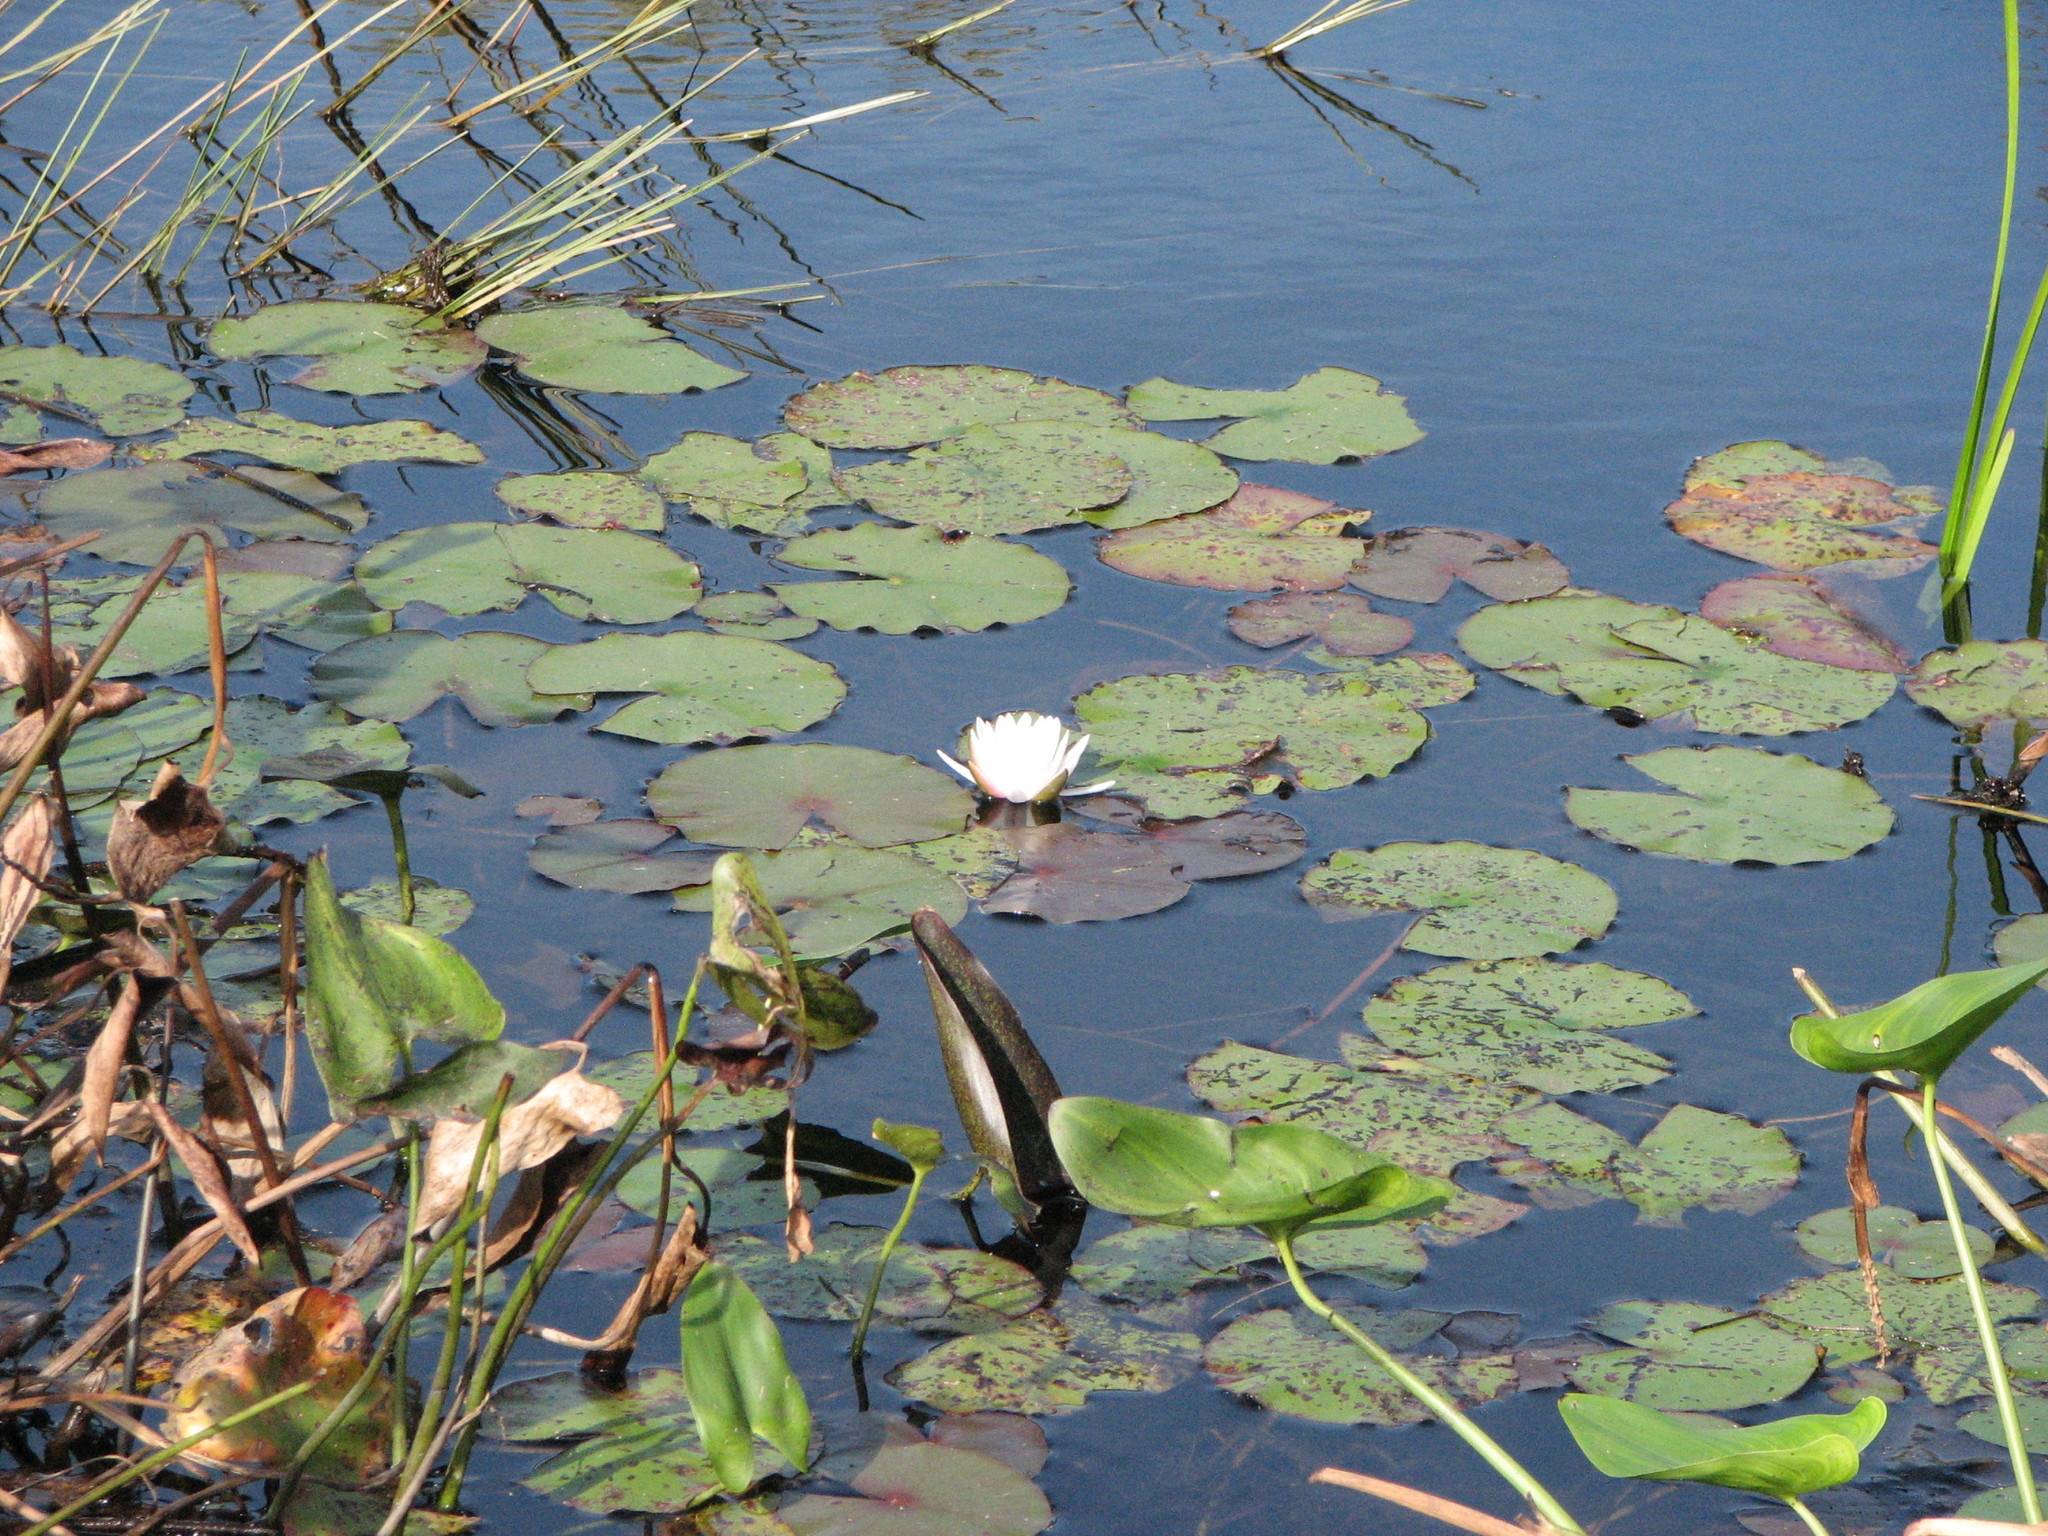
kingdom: Plantae
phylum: Tracheophyta
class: Magnoliopsida
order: Nymphaeales
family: Nymphaeaceae
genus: Nymphaea
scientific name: Nymphaea odorata
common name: Fragrant water-lily
